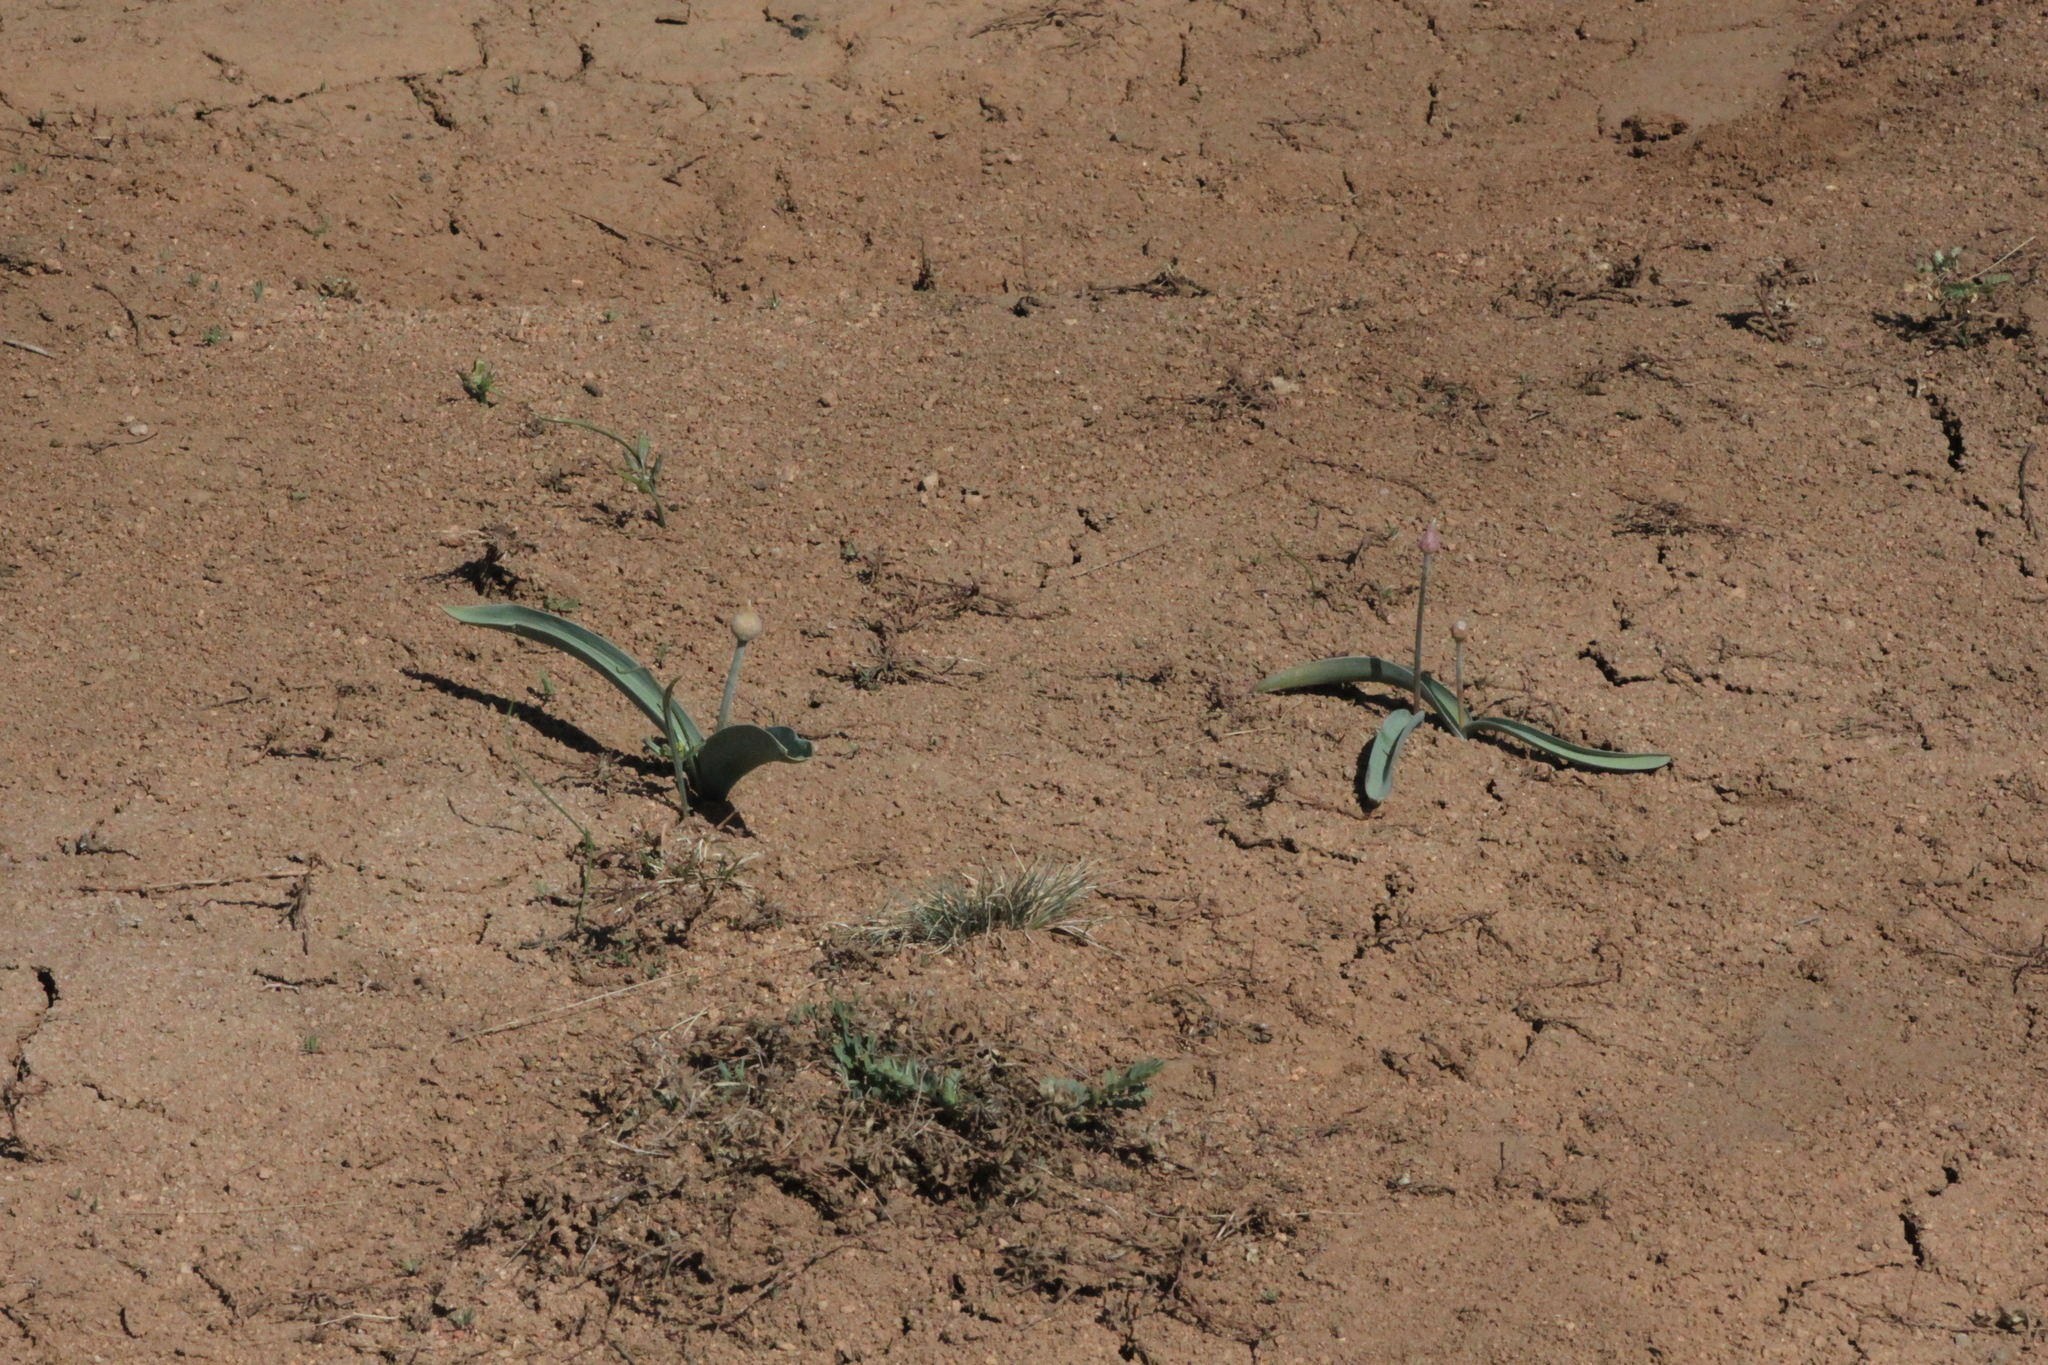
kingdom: Plantae
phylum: Tracheophyta
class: Liliopsida
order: Asparagales
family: Amaryllidaceae
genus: Allium
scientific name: Allium tulipifolium
